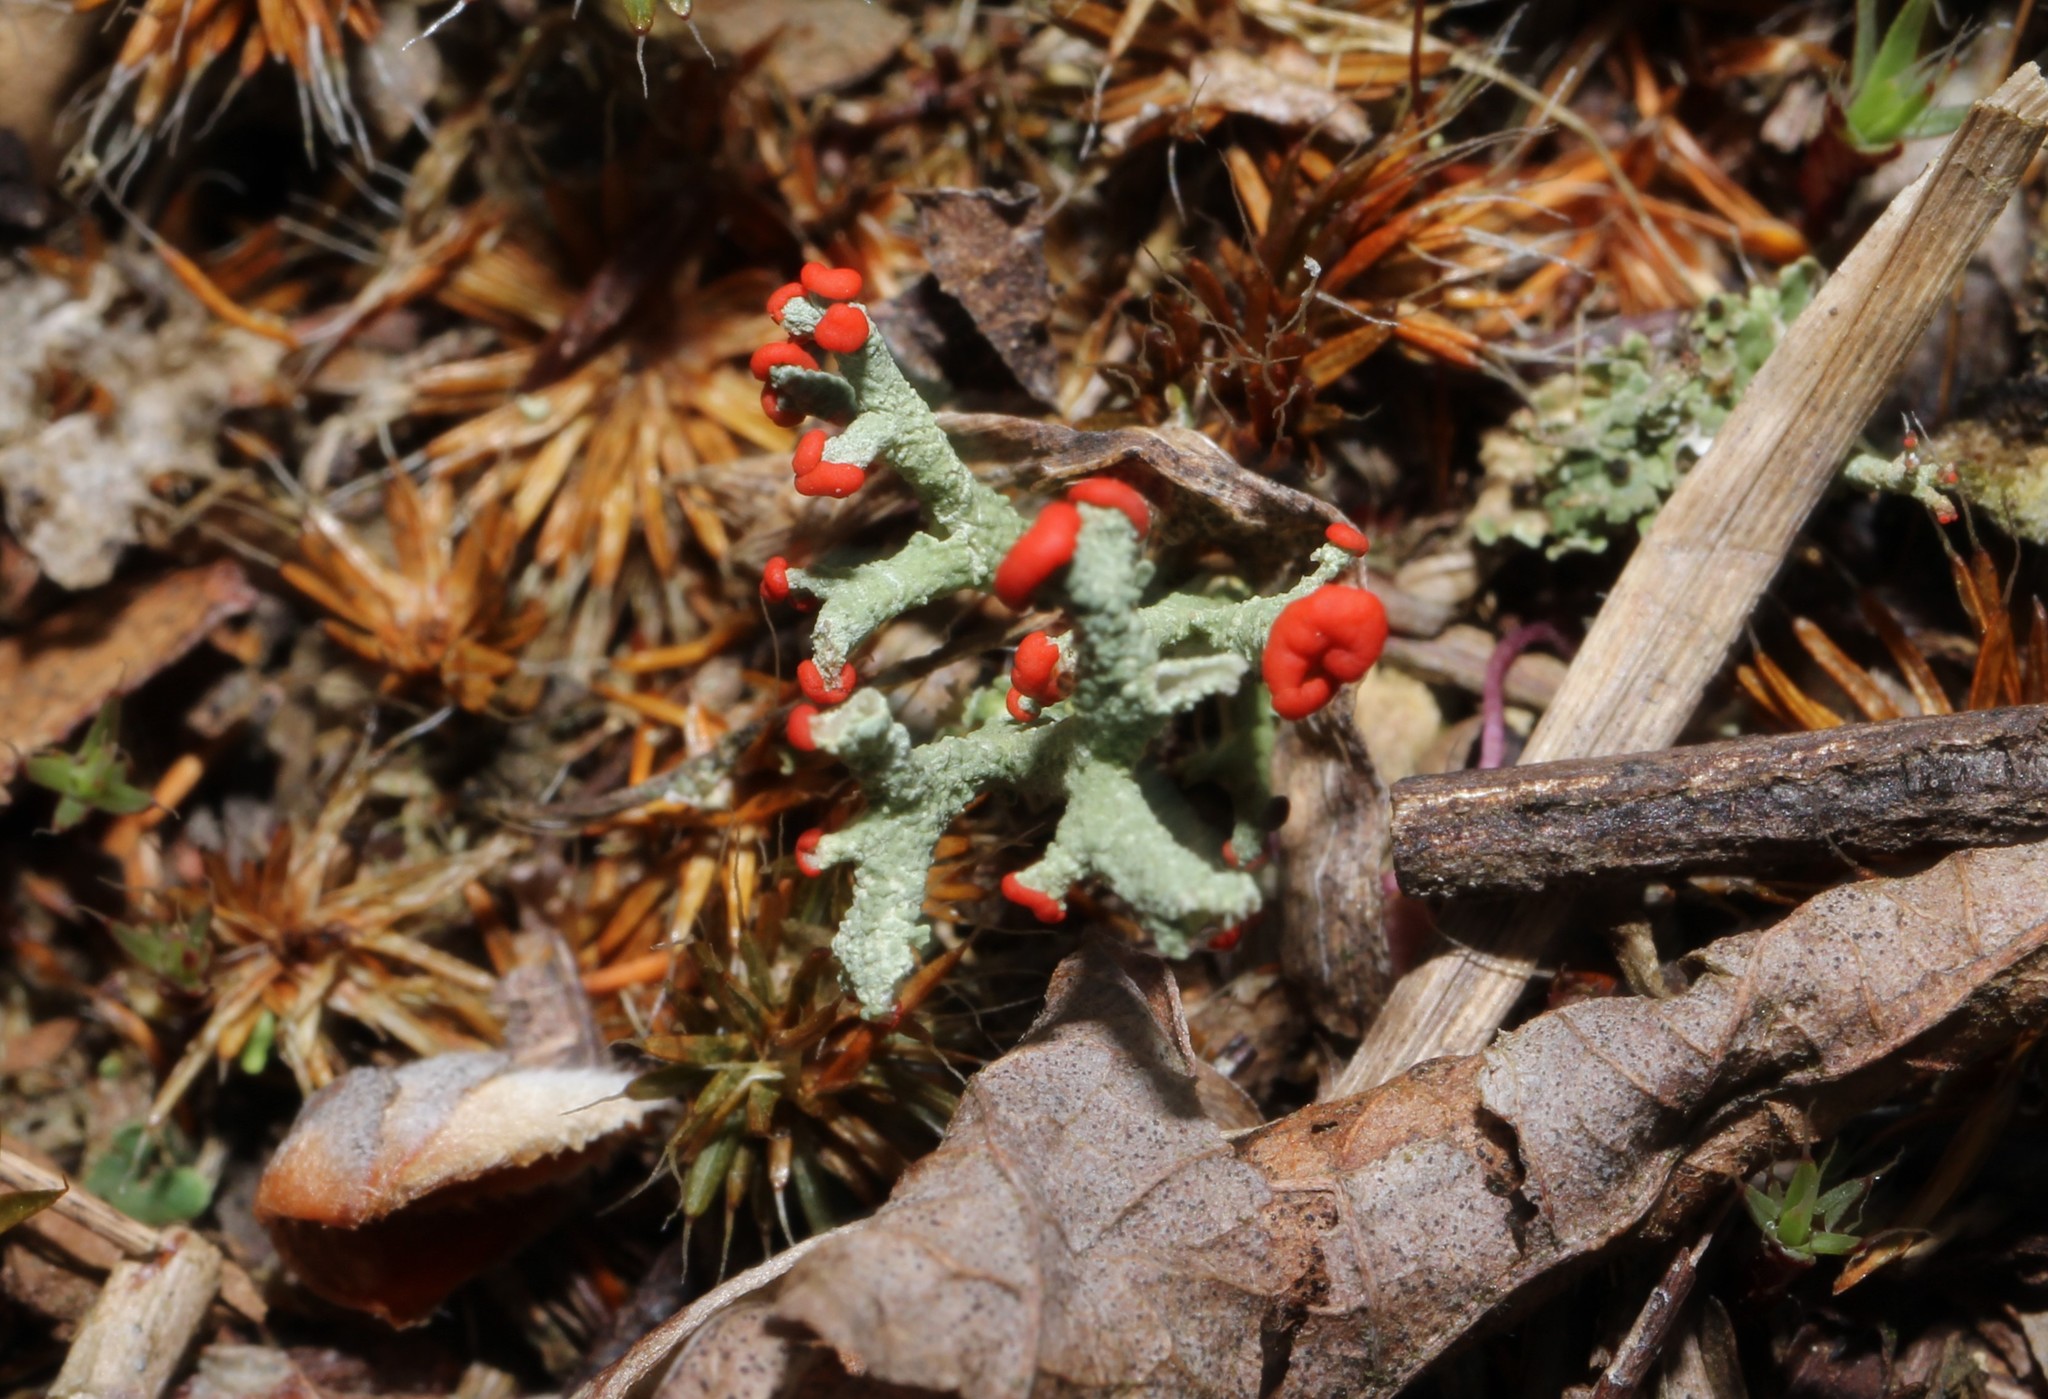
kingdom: Fungi
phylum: Ascomycota
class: Lecanoromycetes
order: Lecanorales
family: Cladoniaceae
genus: Cladonia
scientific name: Cladonia cristatella
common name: British soldier lichen
